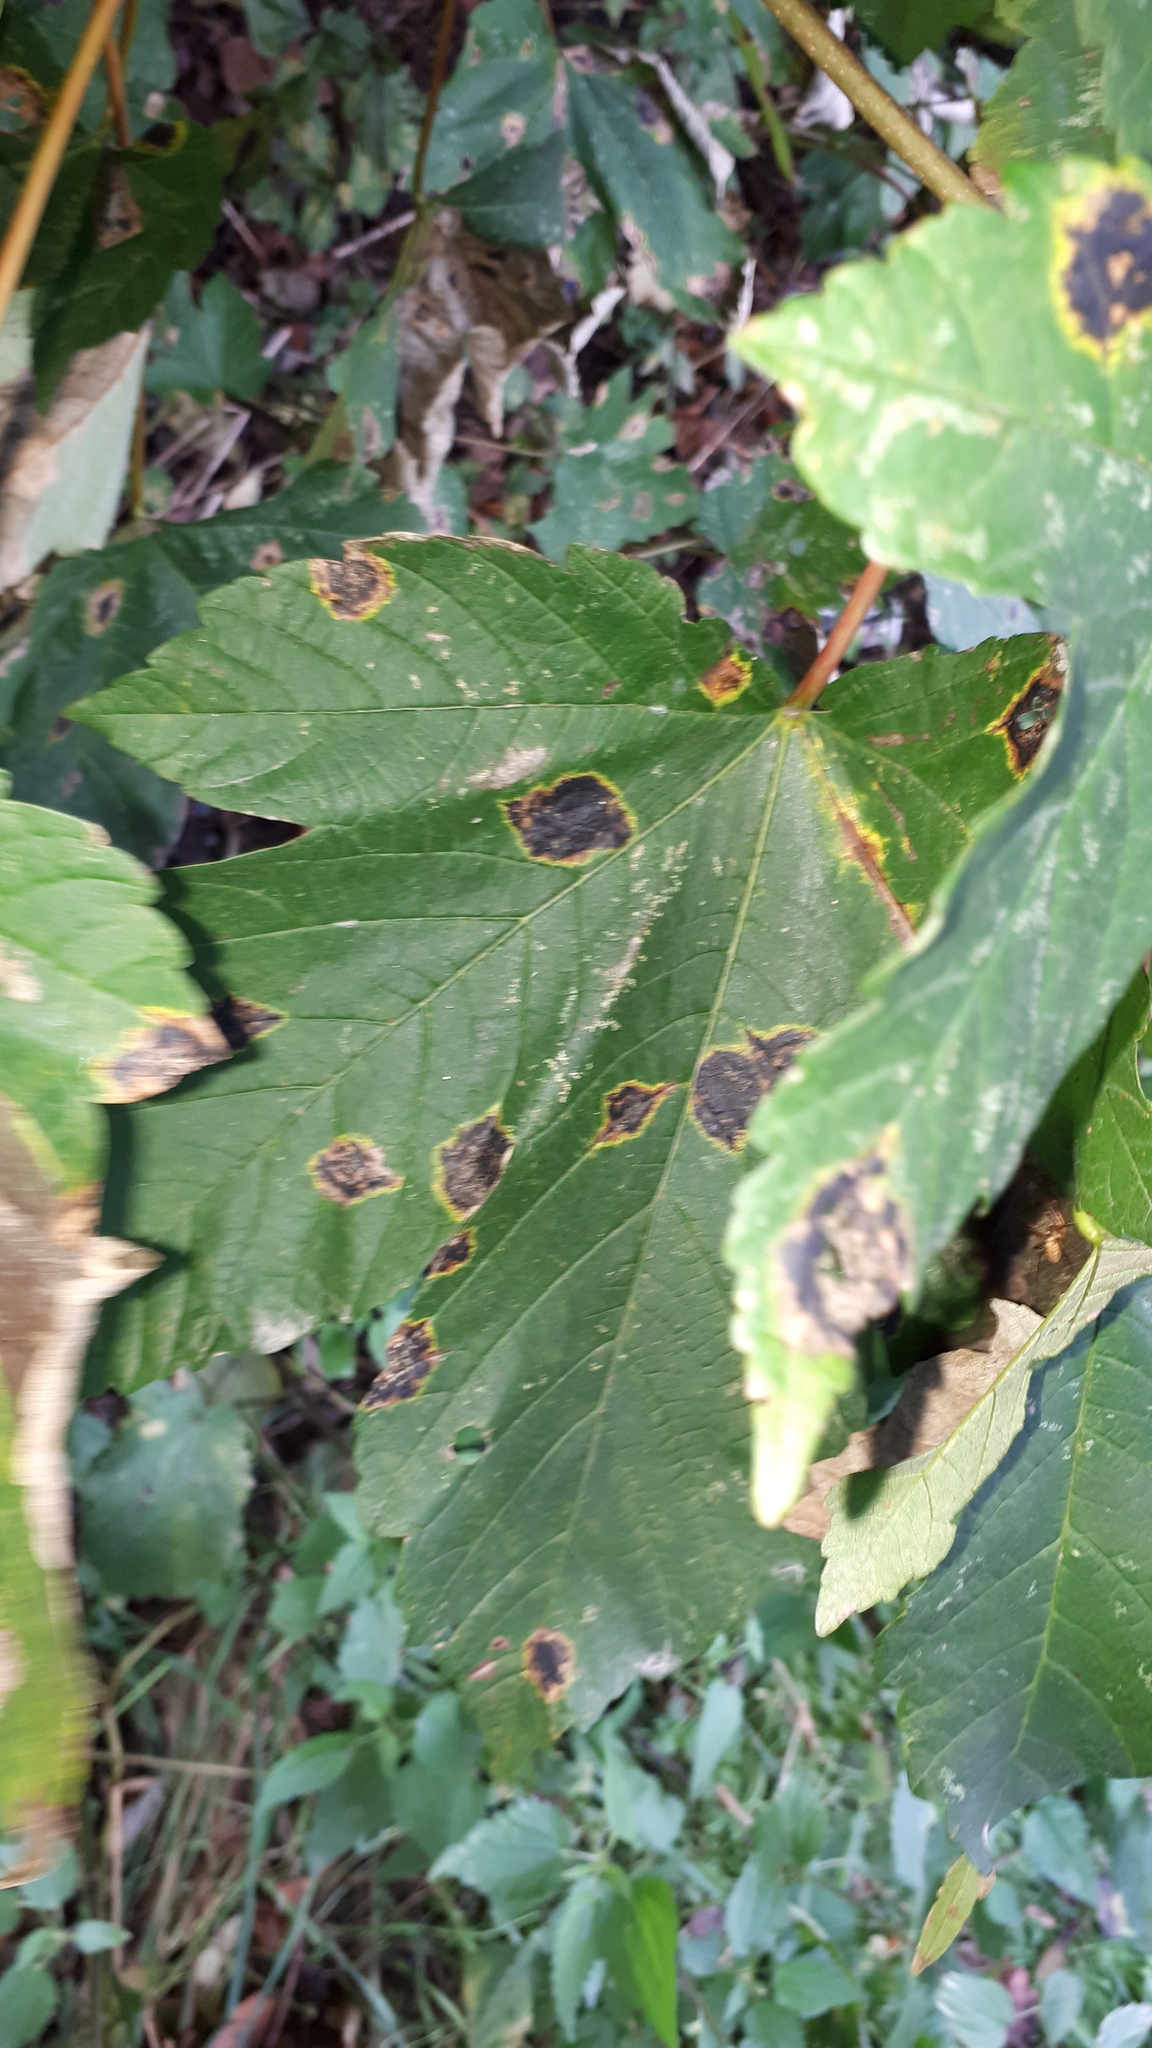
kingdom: Fungi
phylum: Ascomycota
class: Leotiomycetes
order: Rhytismatales
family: Rhytismataceae
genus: Rhytisma
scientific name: Rhytisma acerinum
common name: European tar spot
